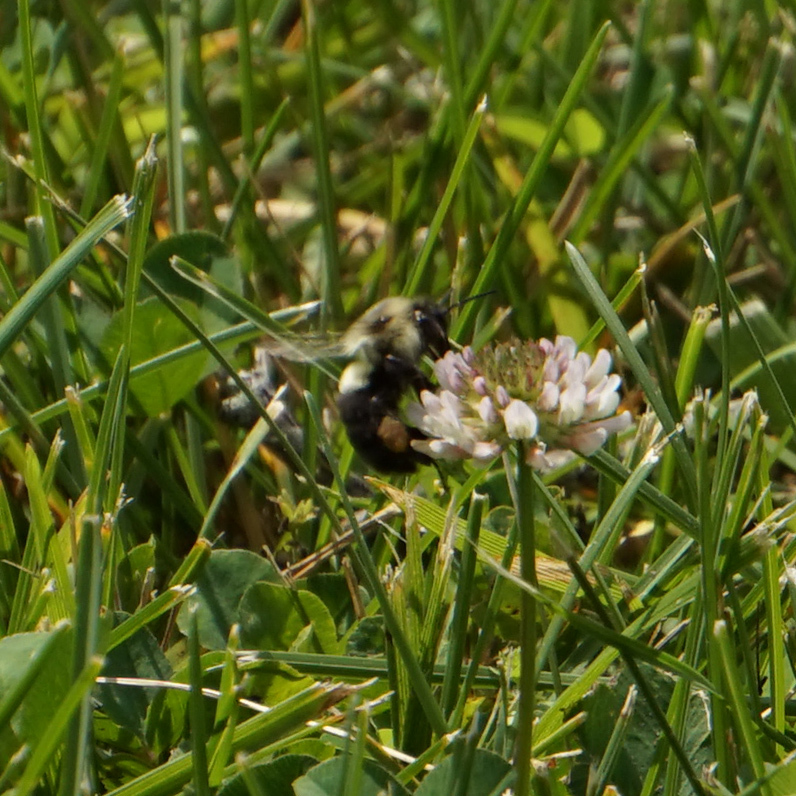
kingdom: Animalia
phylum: Arthropoda
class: Insecta
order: Hymenoptera
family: Apidae
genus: Bombus
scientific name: Bombus impatiens
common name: Common eastern bumble bee
